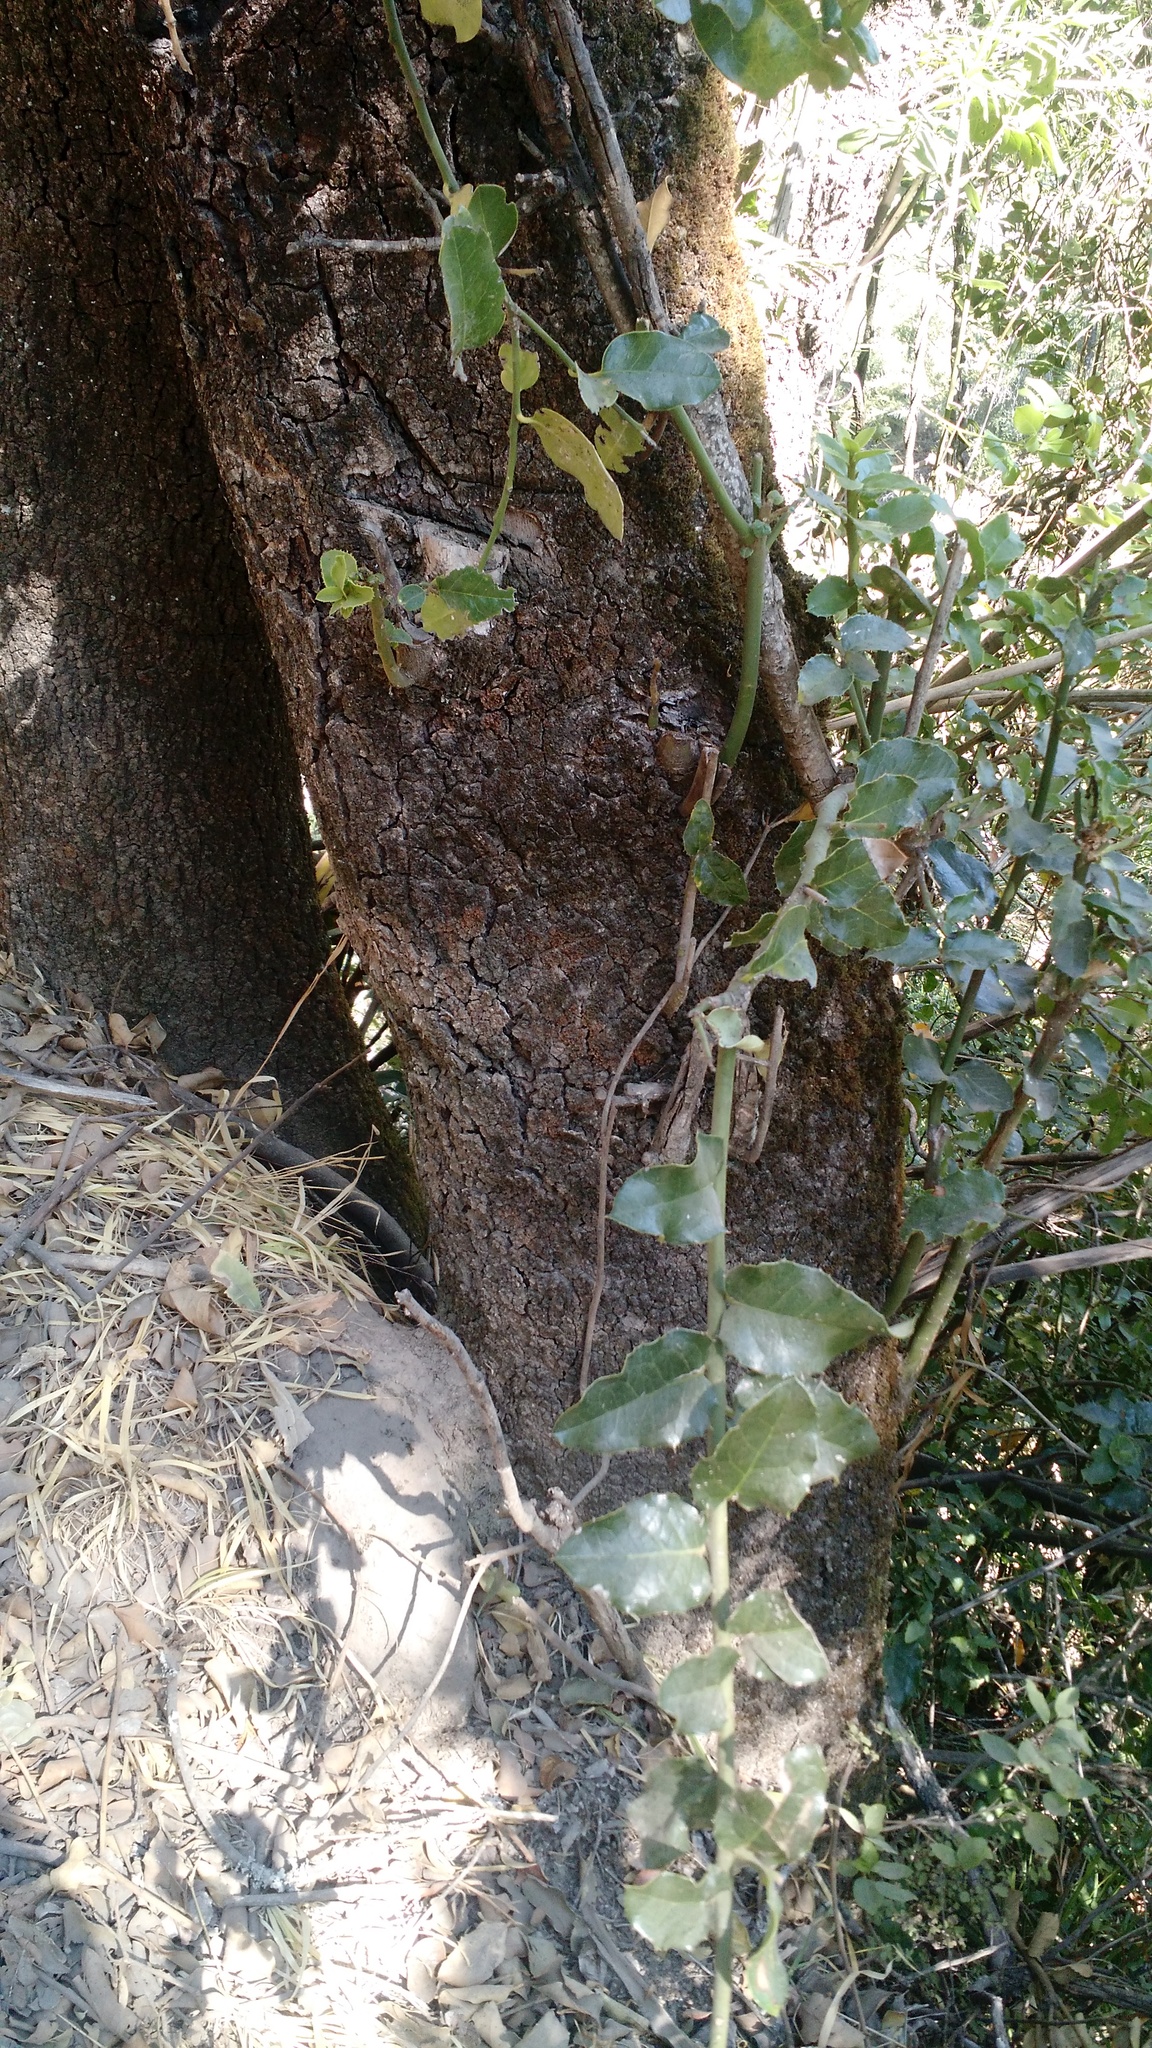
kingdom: Plantae
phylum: Tracheophyta
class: Magnoliopsida
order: Cardiopteridales
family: Cardiopteridaceae
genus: Citronella
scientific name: Citronella mucronata
